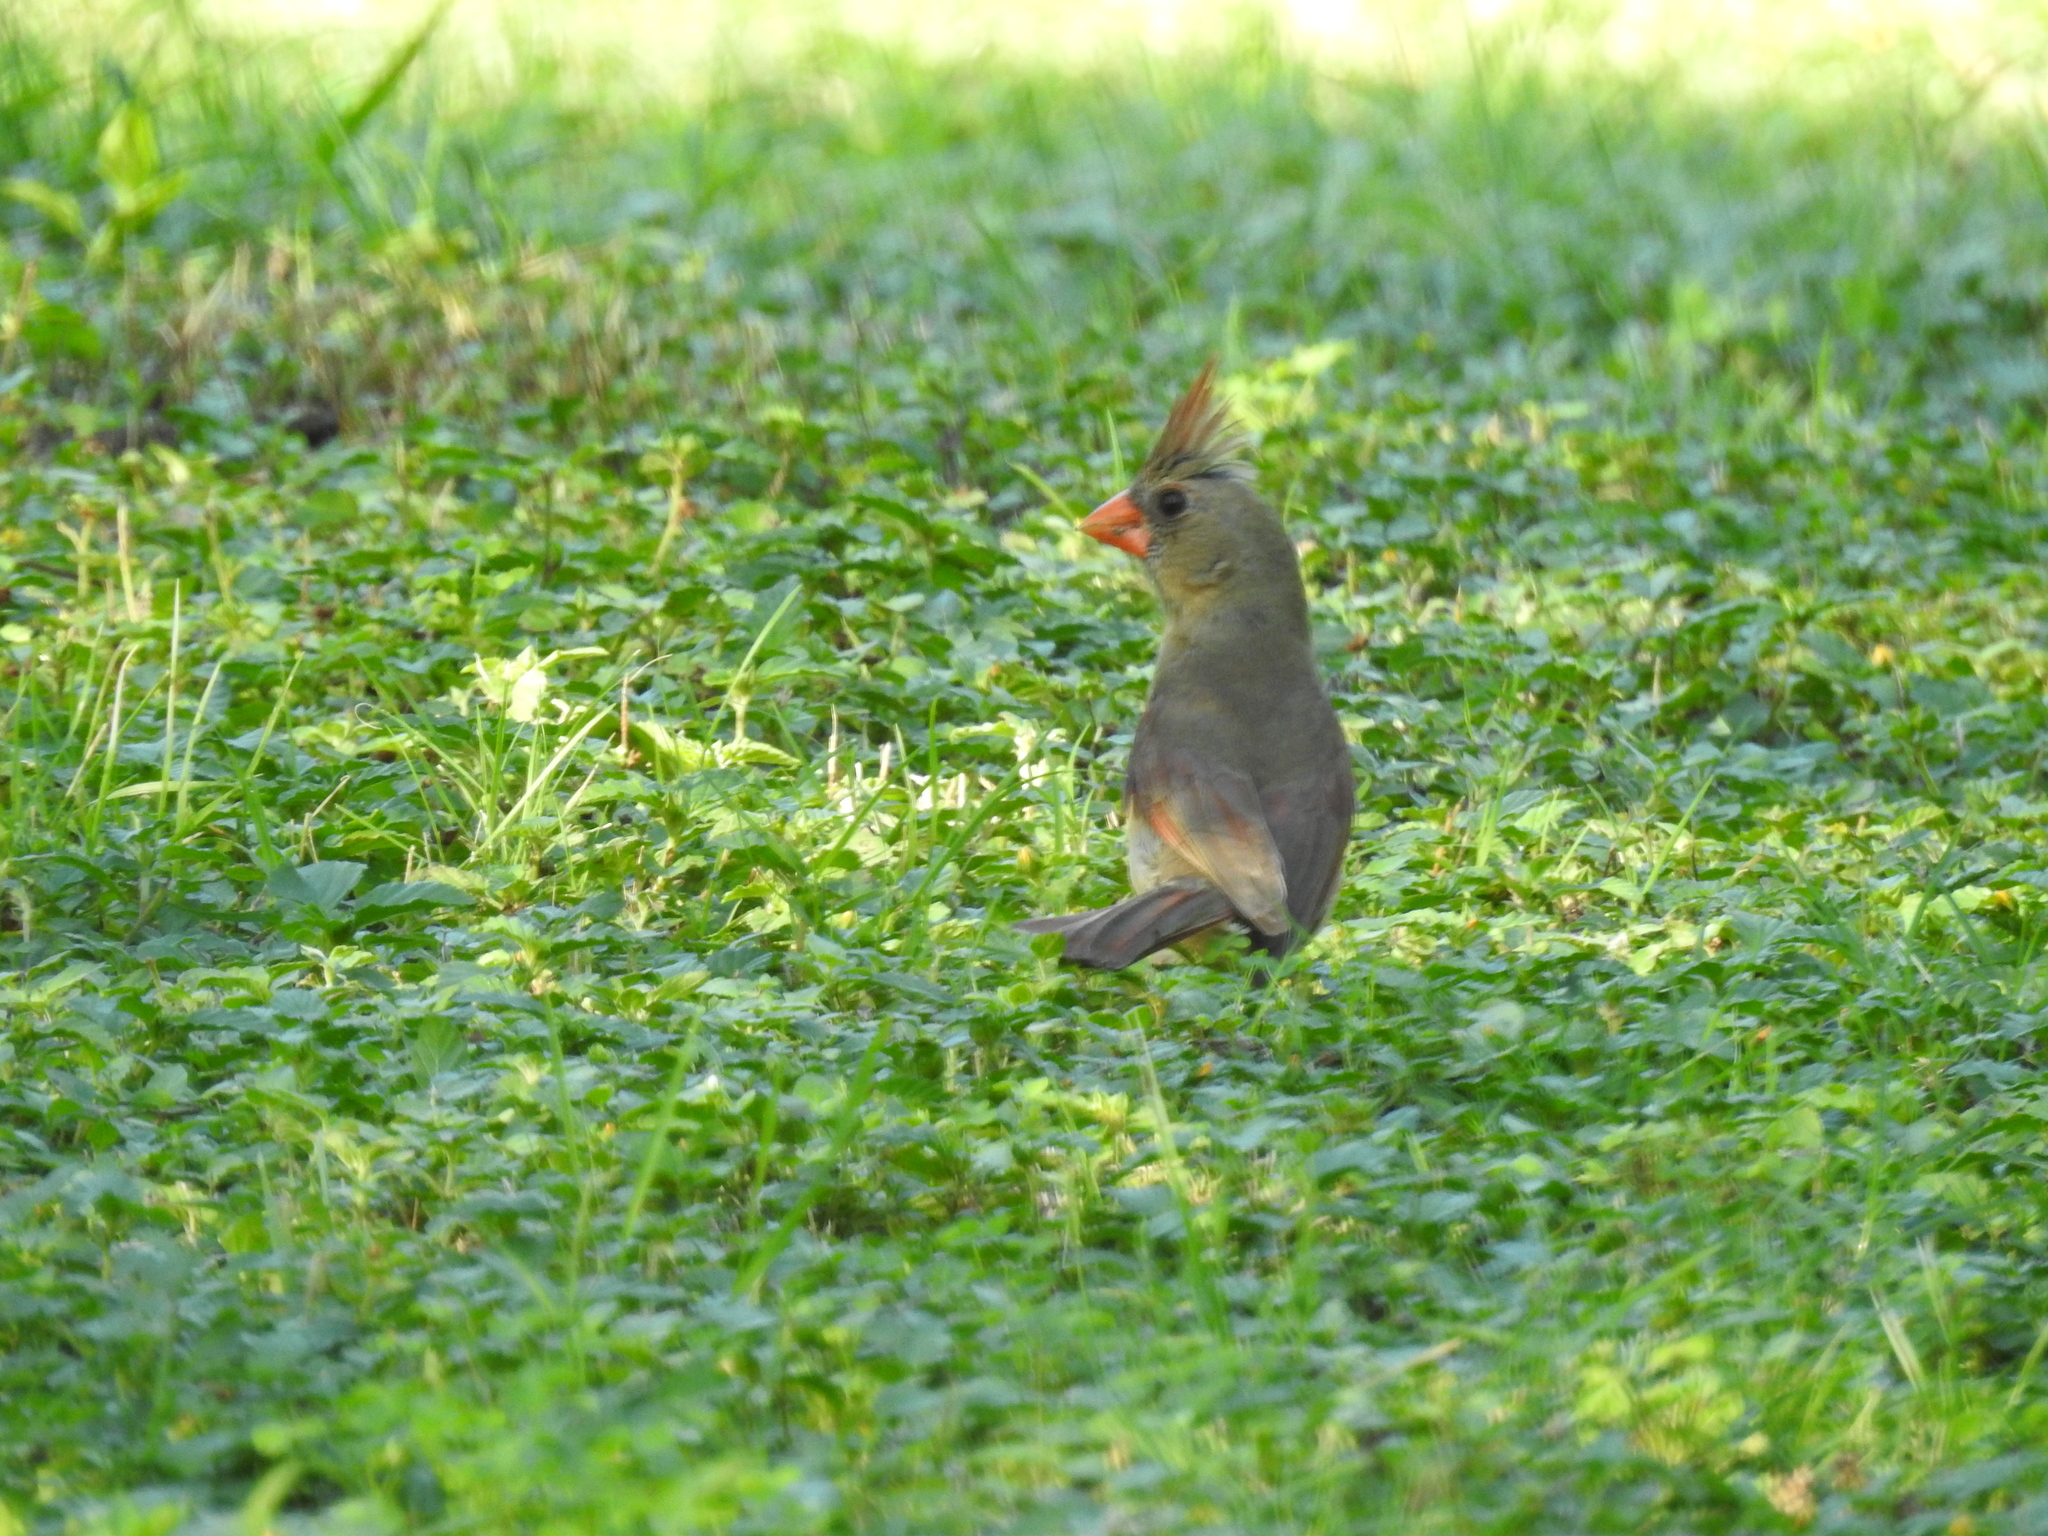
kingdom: Animalia
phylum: Chordata
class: Aves
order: Passeriformes
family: Cardinalidae
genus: Cardinalis
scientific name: Cardinalis cardinalis
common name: Northern cardinal
